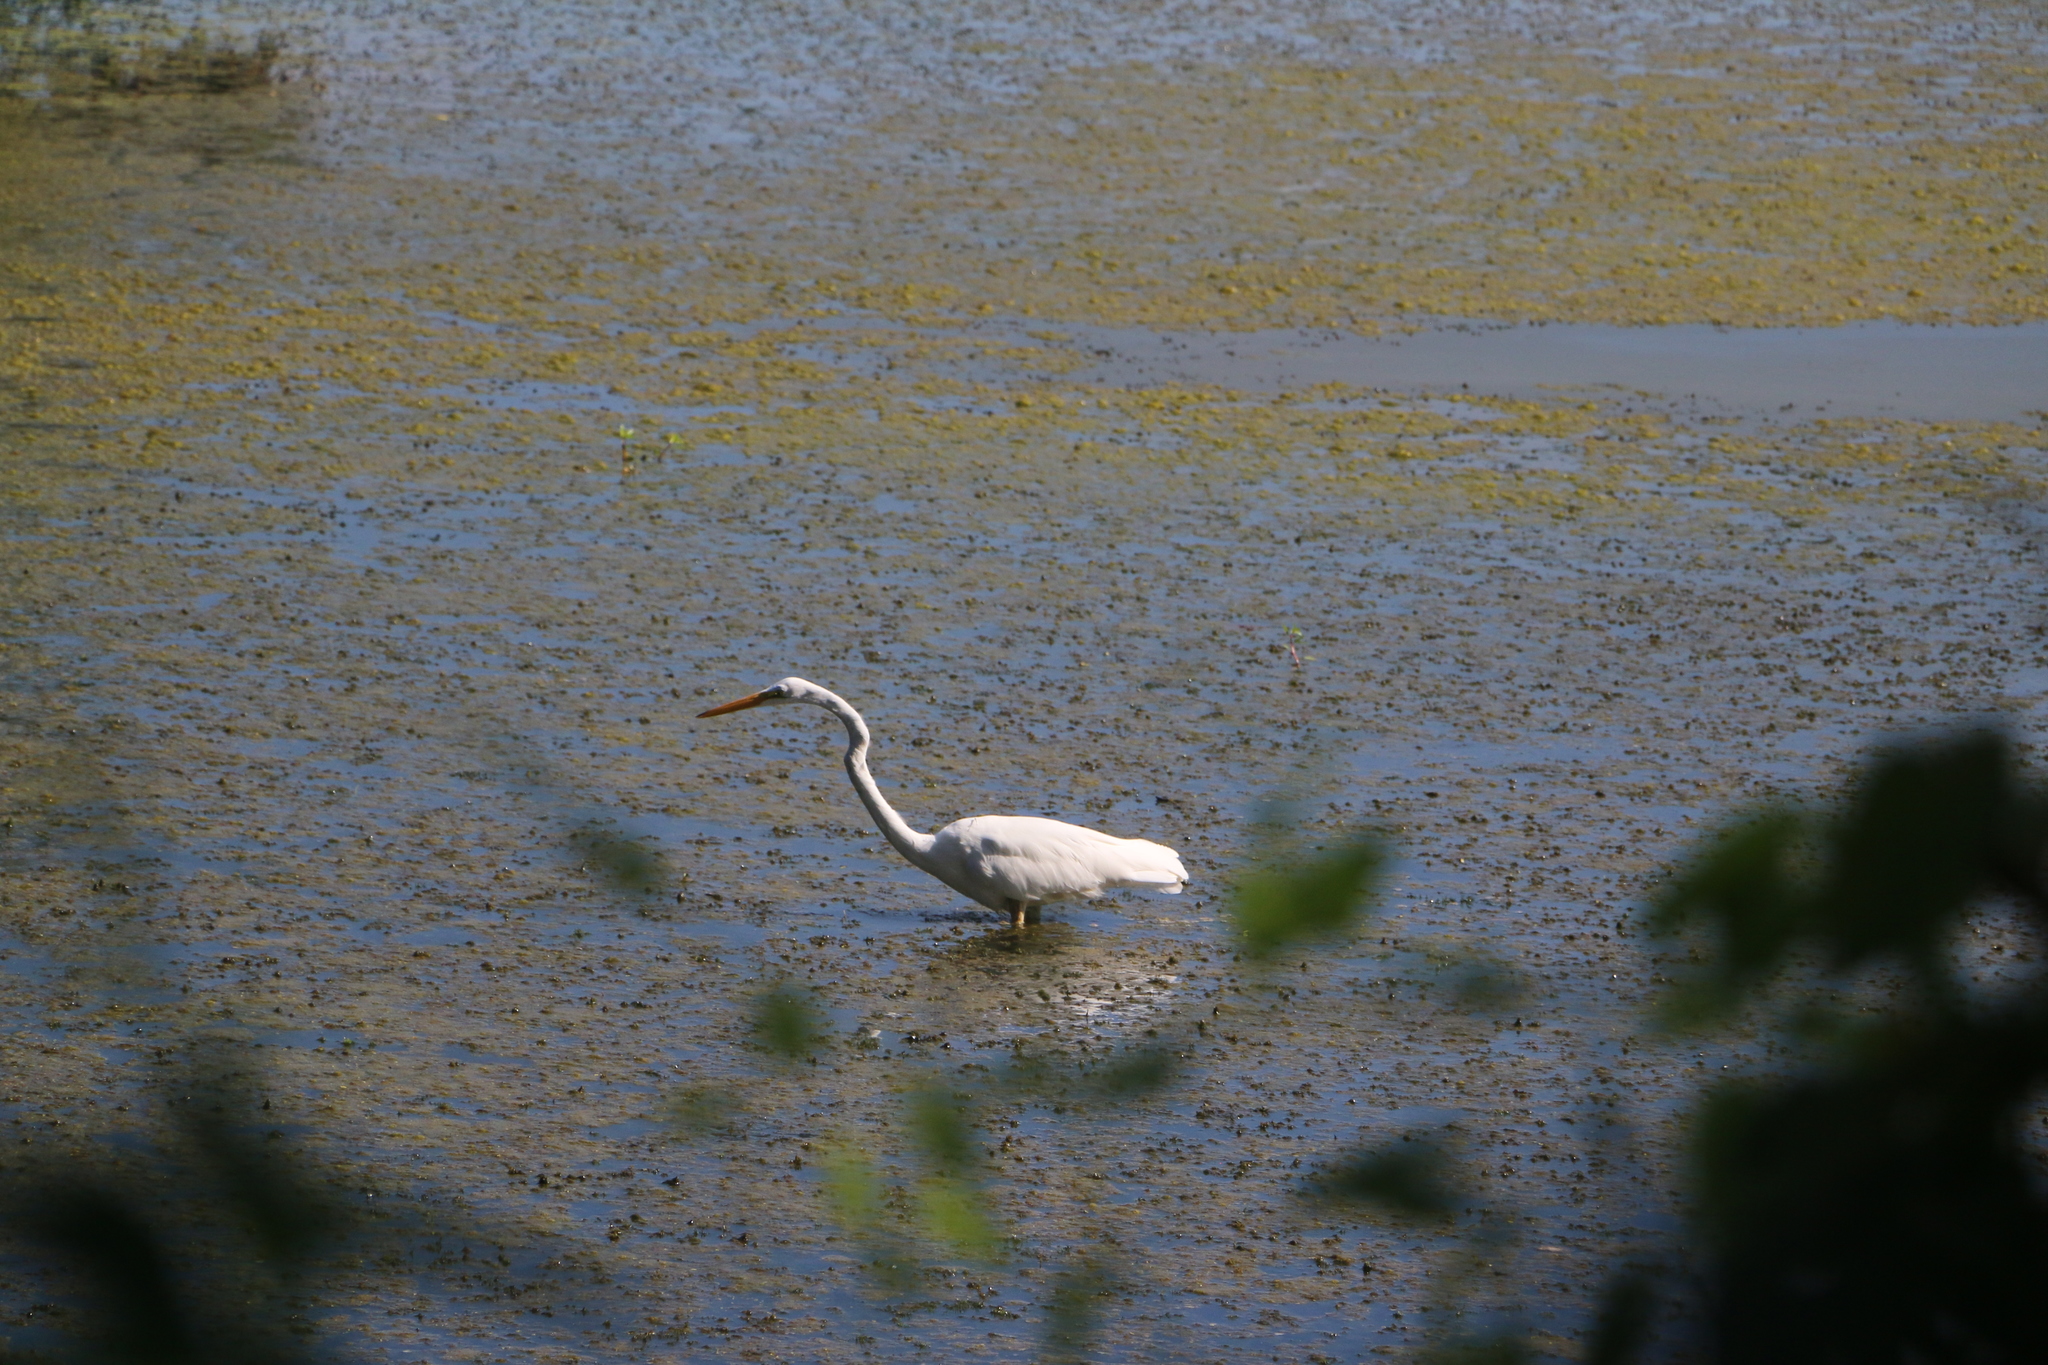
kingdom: Animalia
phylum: Chordata
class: Aves
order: Pelecaniformes
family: Ardeidae
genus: Ardea
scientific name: Ardea alba
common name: Great egret
